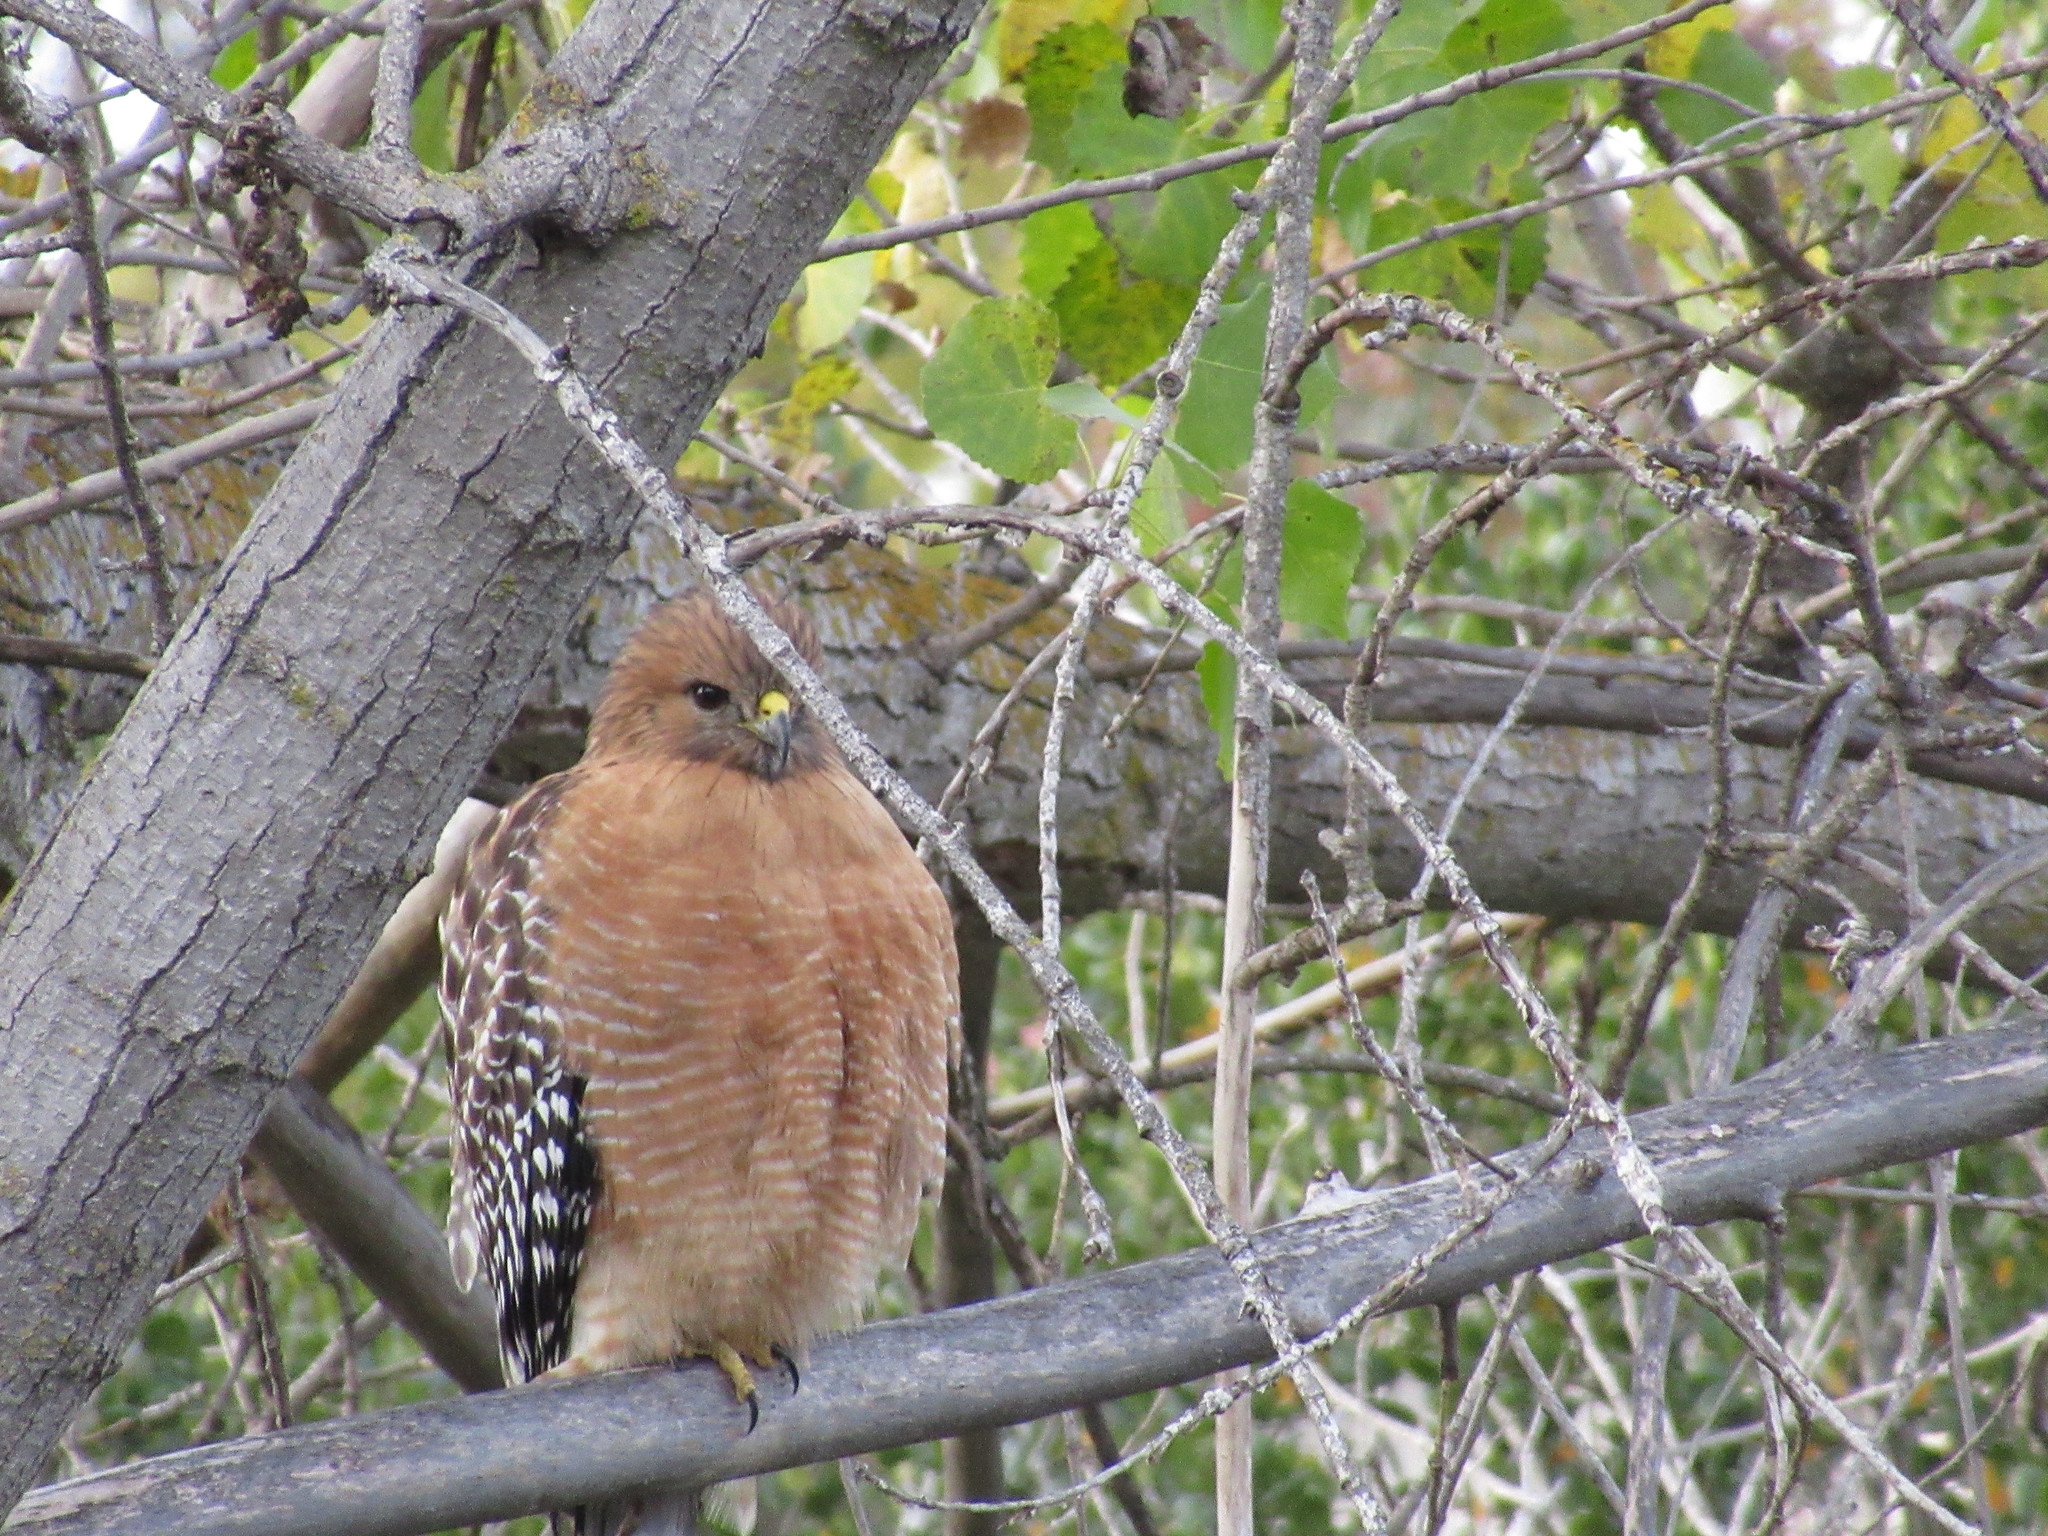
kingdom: Animalia
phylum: Chordata
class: Aves
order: Accipitriformes
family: Accipitridae
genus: Buteo
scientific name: Buteo lineatus
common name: Red-shouldered hawk
